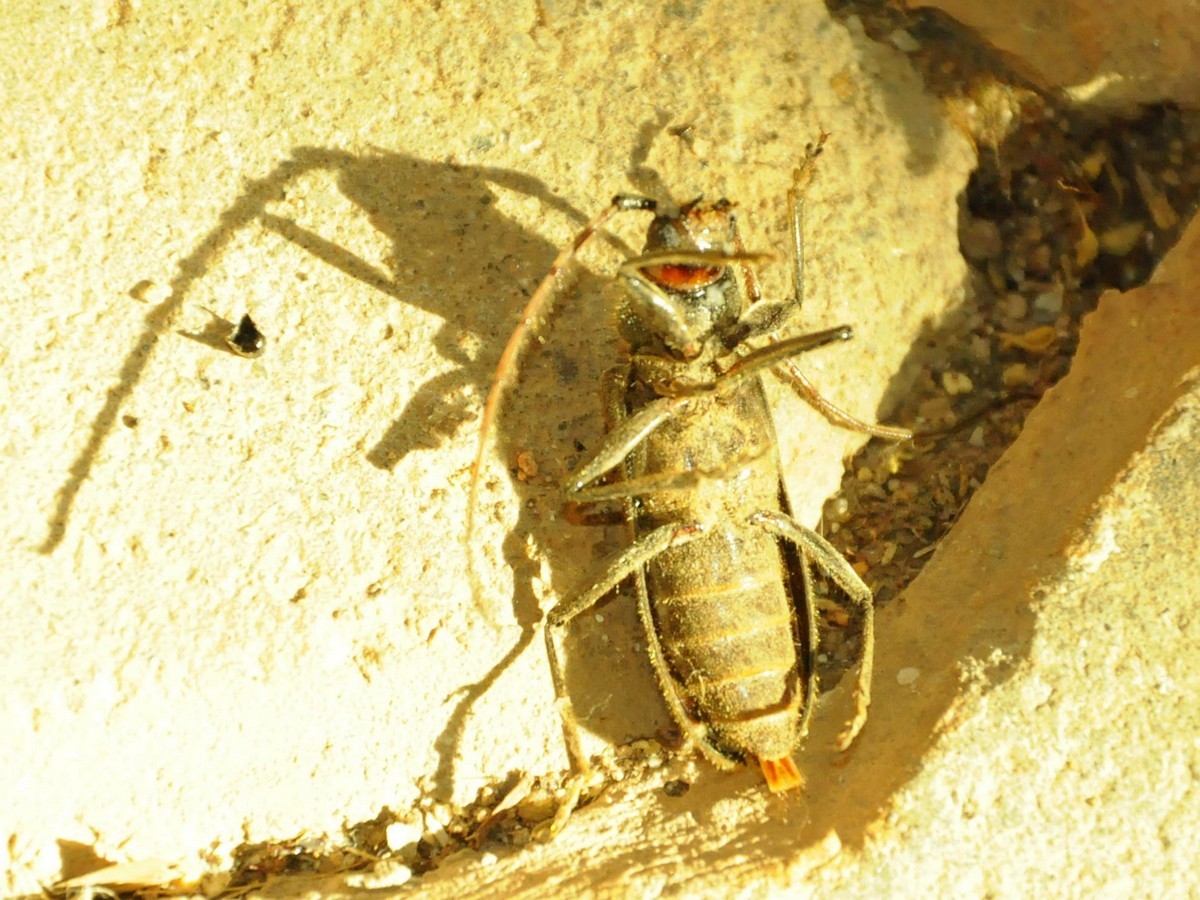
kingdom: Animalia
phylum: Arthropoda
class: Insecta
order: Coleoptera
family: Cerambycidae
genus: Stromatium
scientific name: Stromatium barbatum
